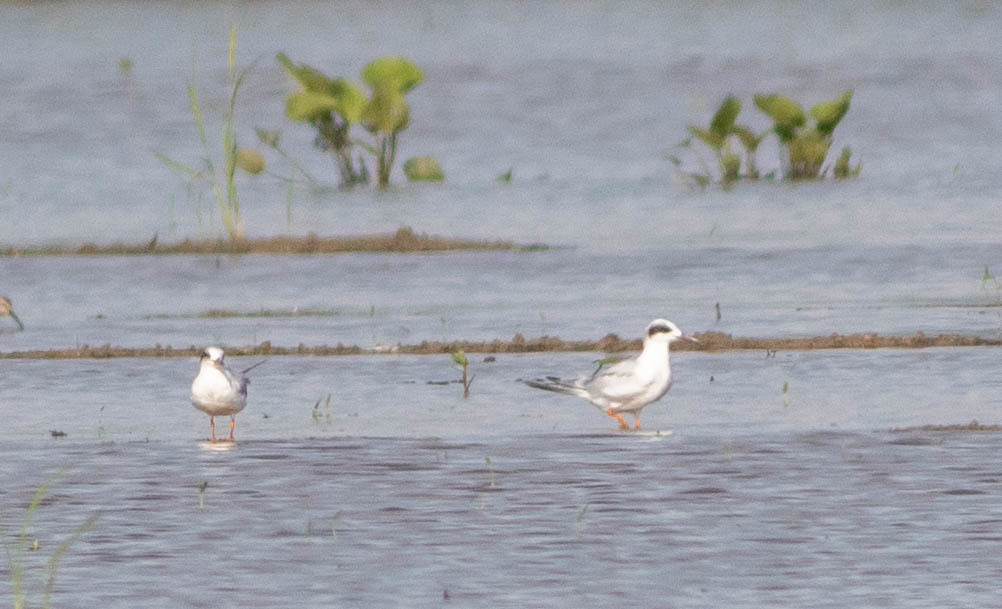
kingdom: Animalia
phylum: Chordata
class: Aves
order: Charadriiformes
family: Laridae
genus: Sterna
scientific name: Sterna forsteri
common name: Forster's tern
